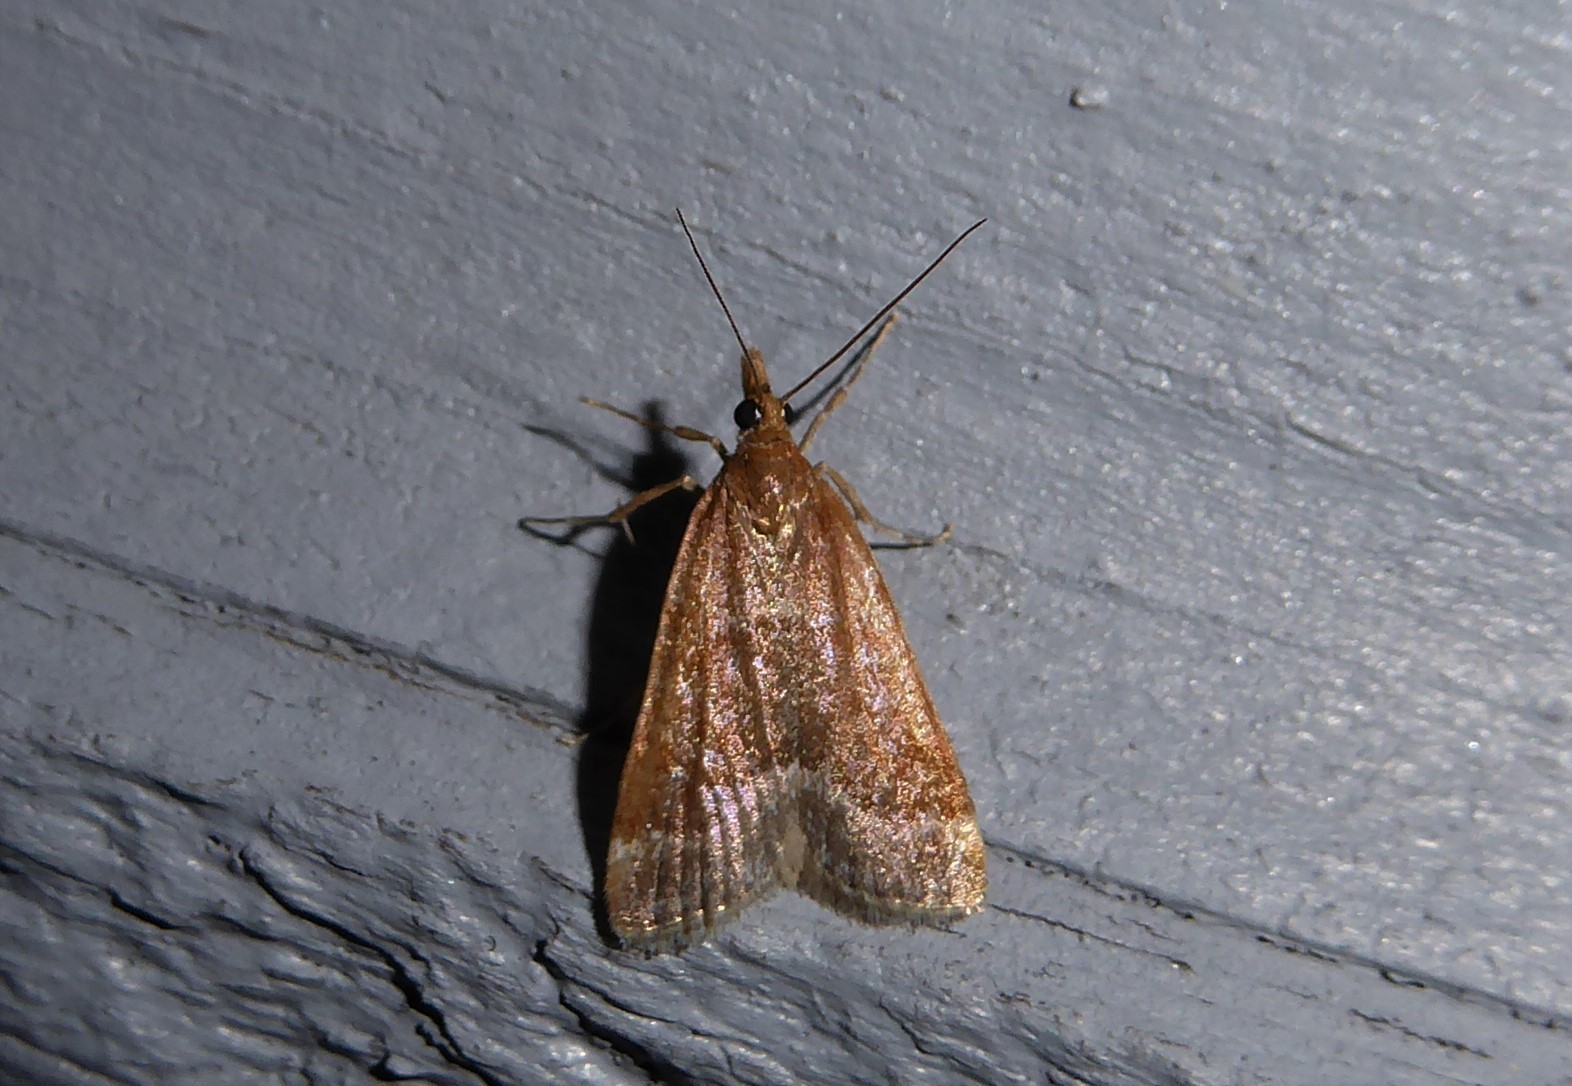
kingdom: Animalia
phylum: Arthropoda
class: Insecta
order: Lepidoptera
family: Crambidae
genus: Eudonia
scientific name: Eudonia feredayi
